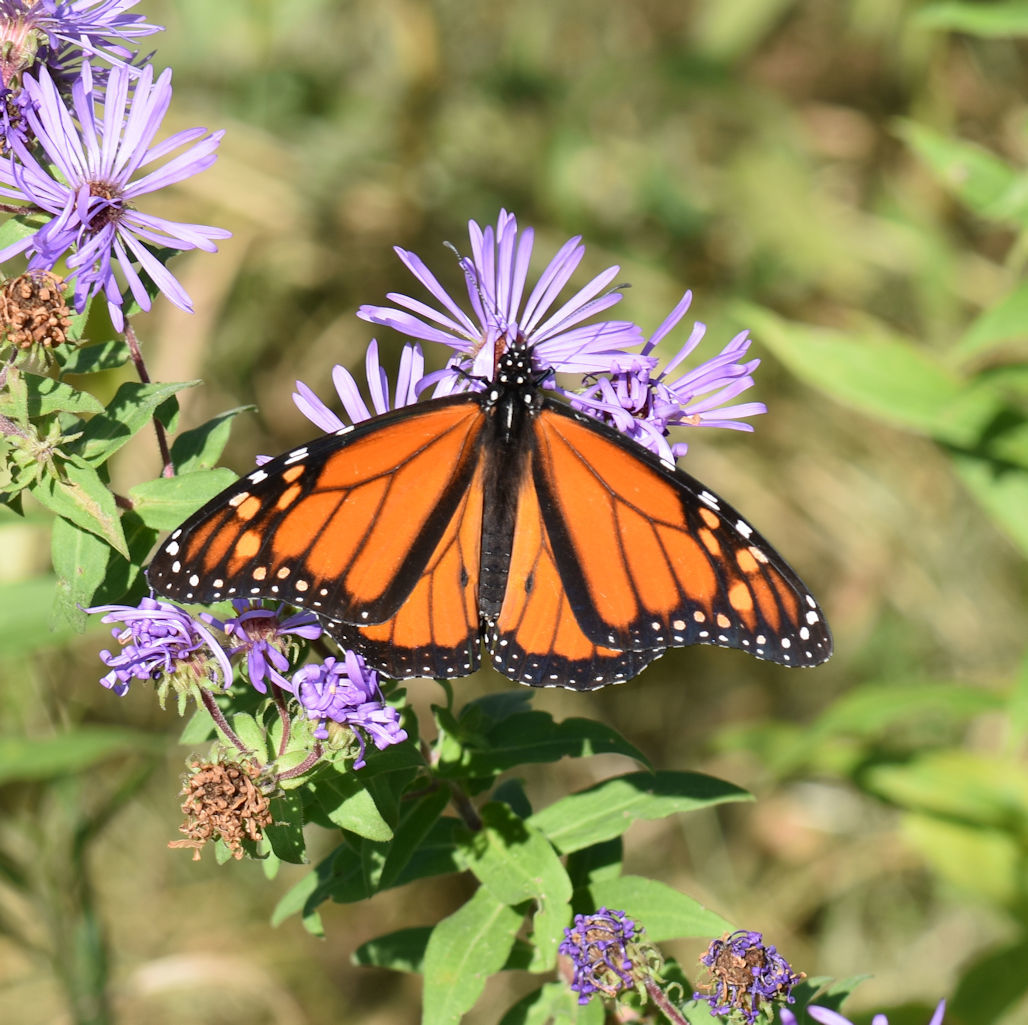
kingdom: Animalia
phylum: Arthropoda
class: Insecta
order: Lepidoptera
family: Nymphalidae
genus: Danaus
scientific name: Danaus plexippus
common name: Monarch
